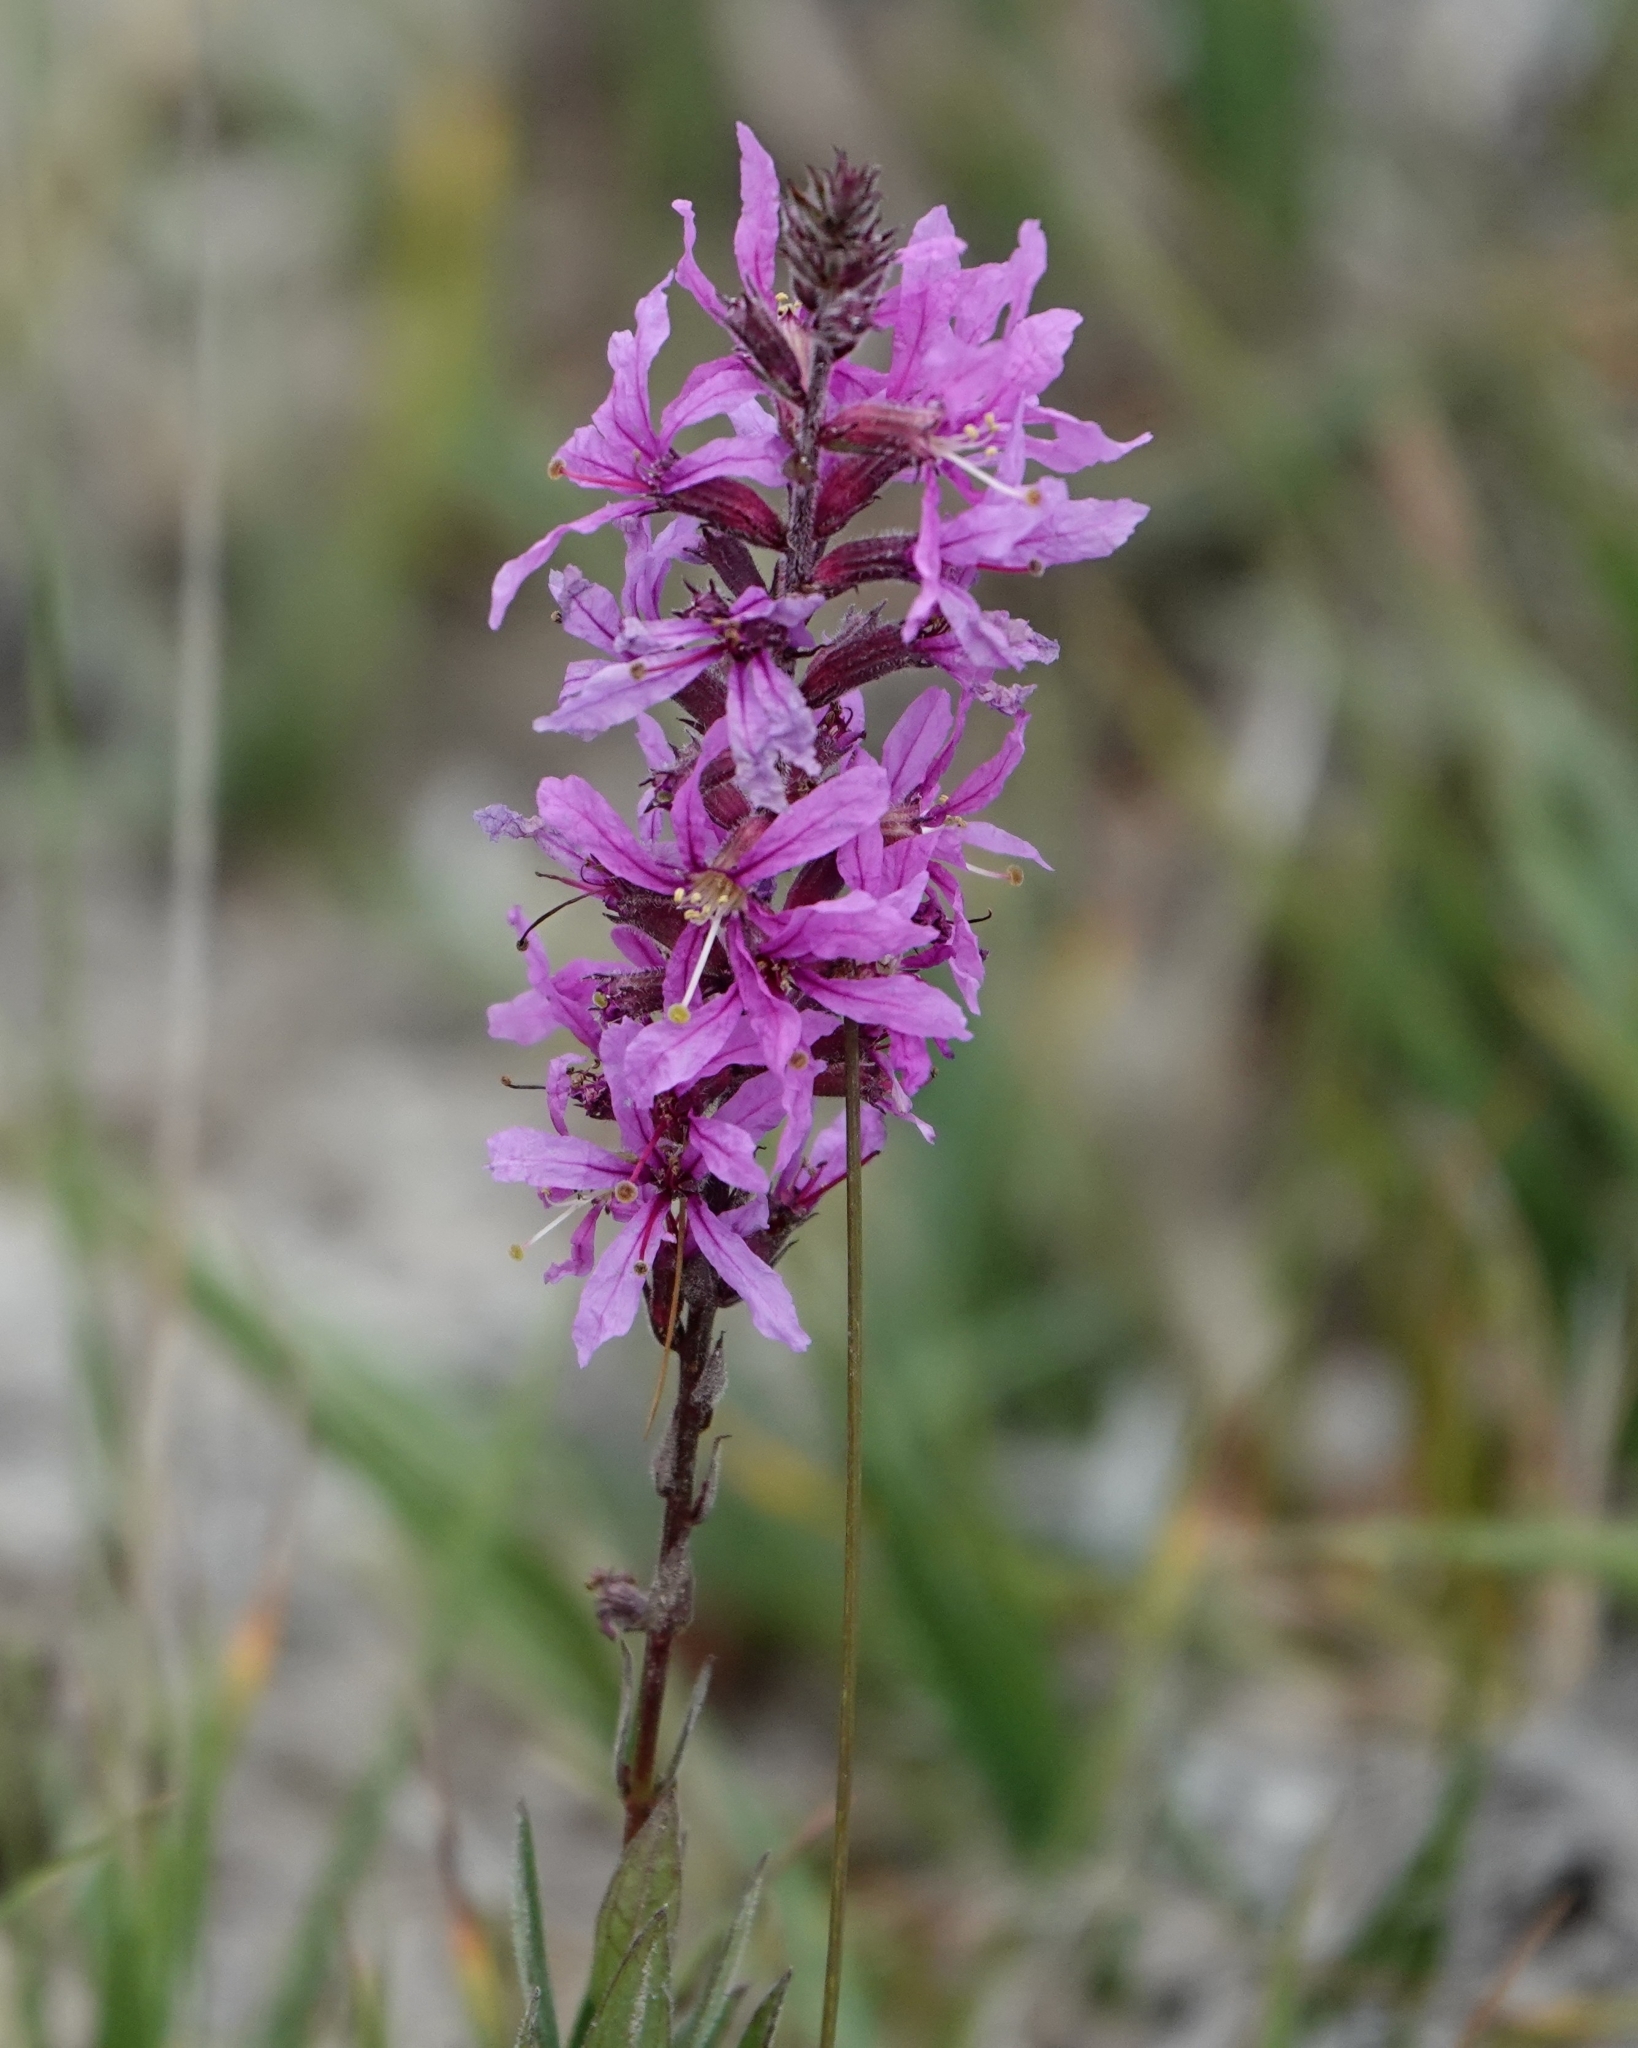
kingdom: Plantae
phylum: Tracheophyta
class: Magnoliopsida
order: Myrtales
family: Lythraceae
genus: Lythrum
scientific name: Lythrum salicaria
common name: Purple loosestrife
